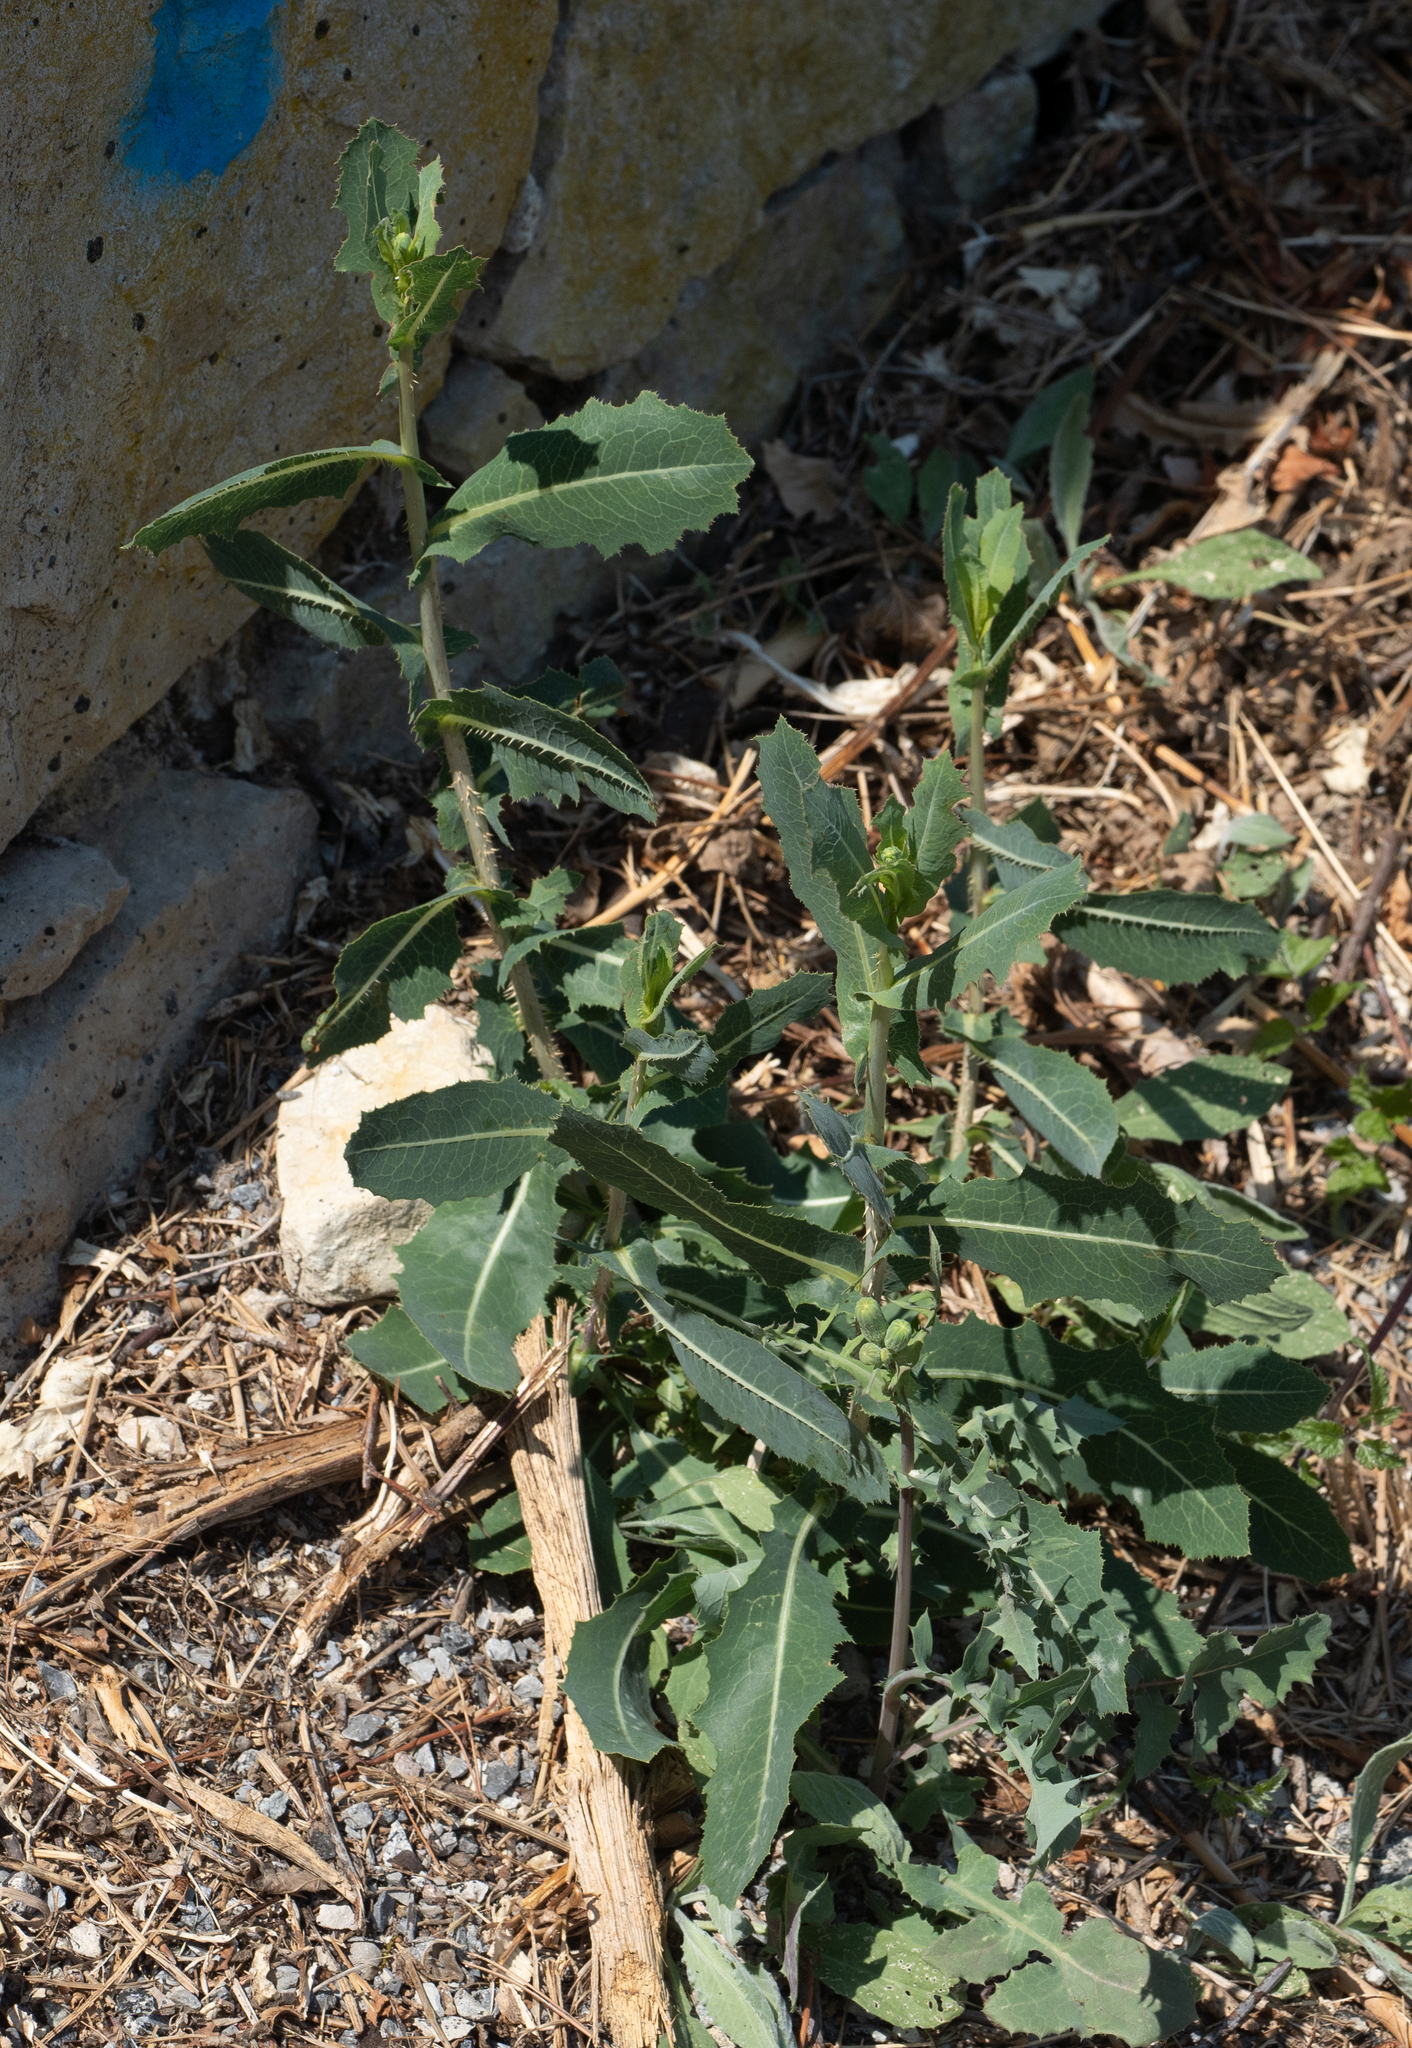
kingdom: Plantae
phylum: Tracheophyta
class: Magnoliopsida
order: Asterales
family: Asteraceae
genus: Lactuca
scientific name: Lactuca serriola
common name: Prickly lettuce
